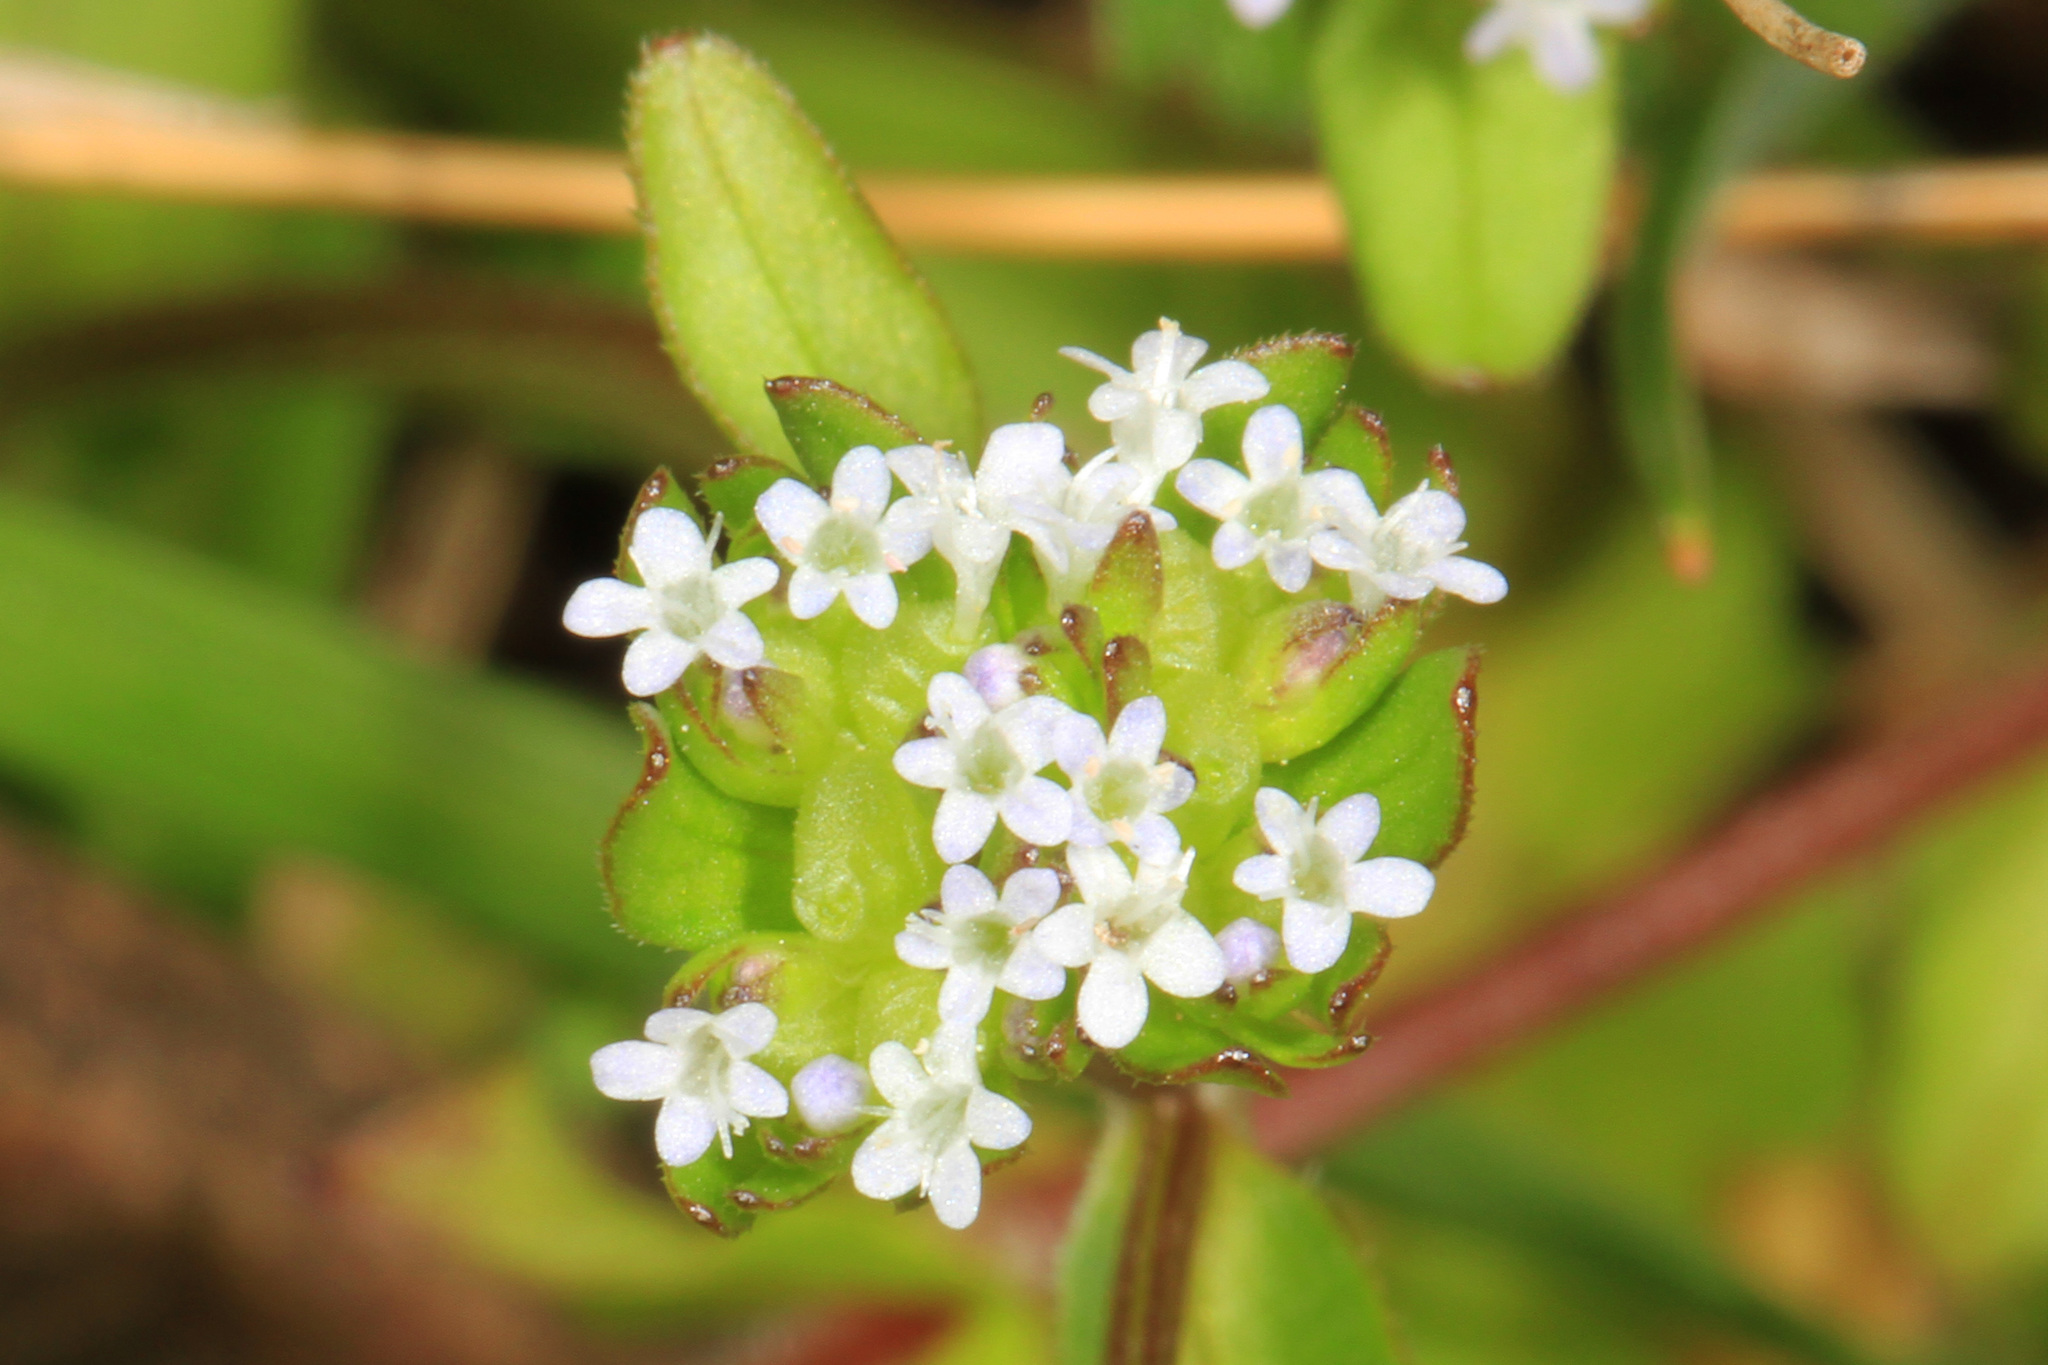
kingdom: Plantae
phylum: Tracheophyta
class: Magnoliopsida
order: Dipsacales
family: Caprifoliaceae
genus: Valerianella
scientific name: Valerianella locusta
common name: Common cornsalad
